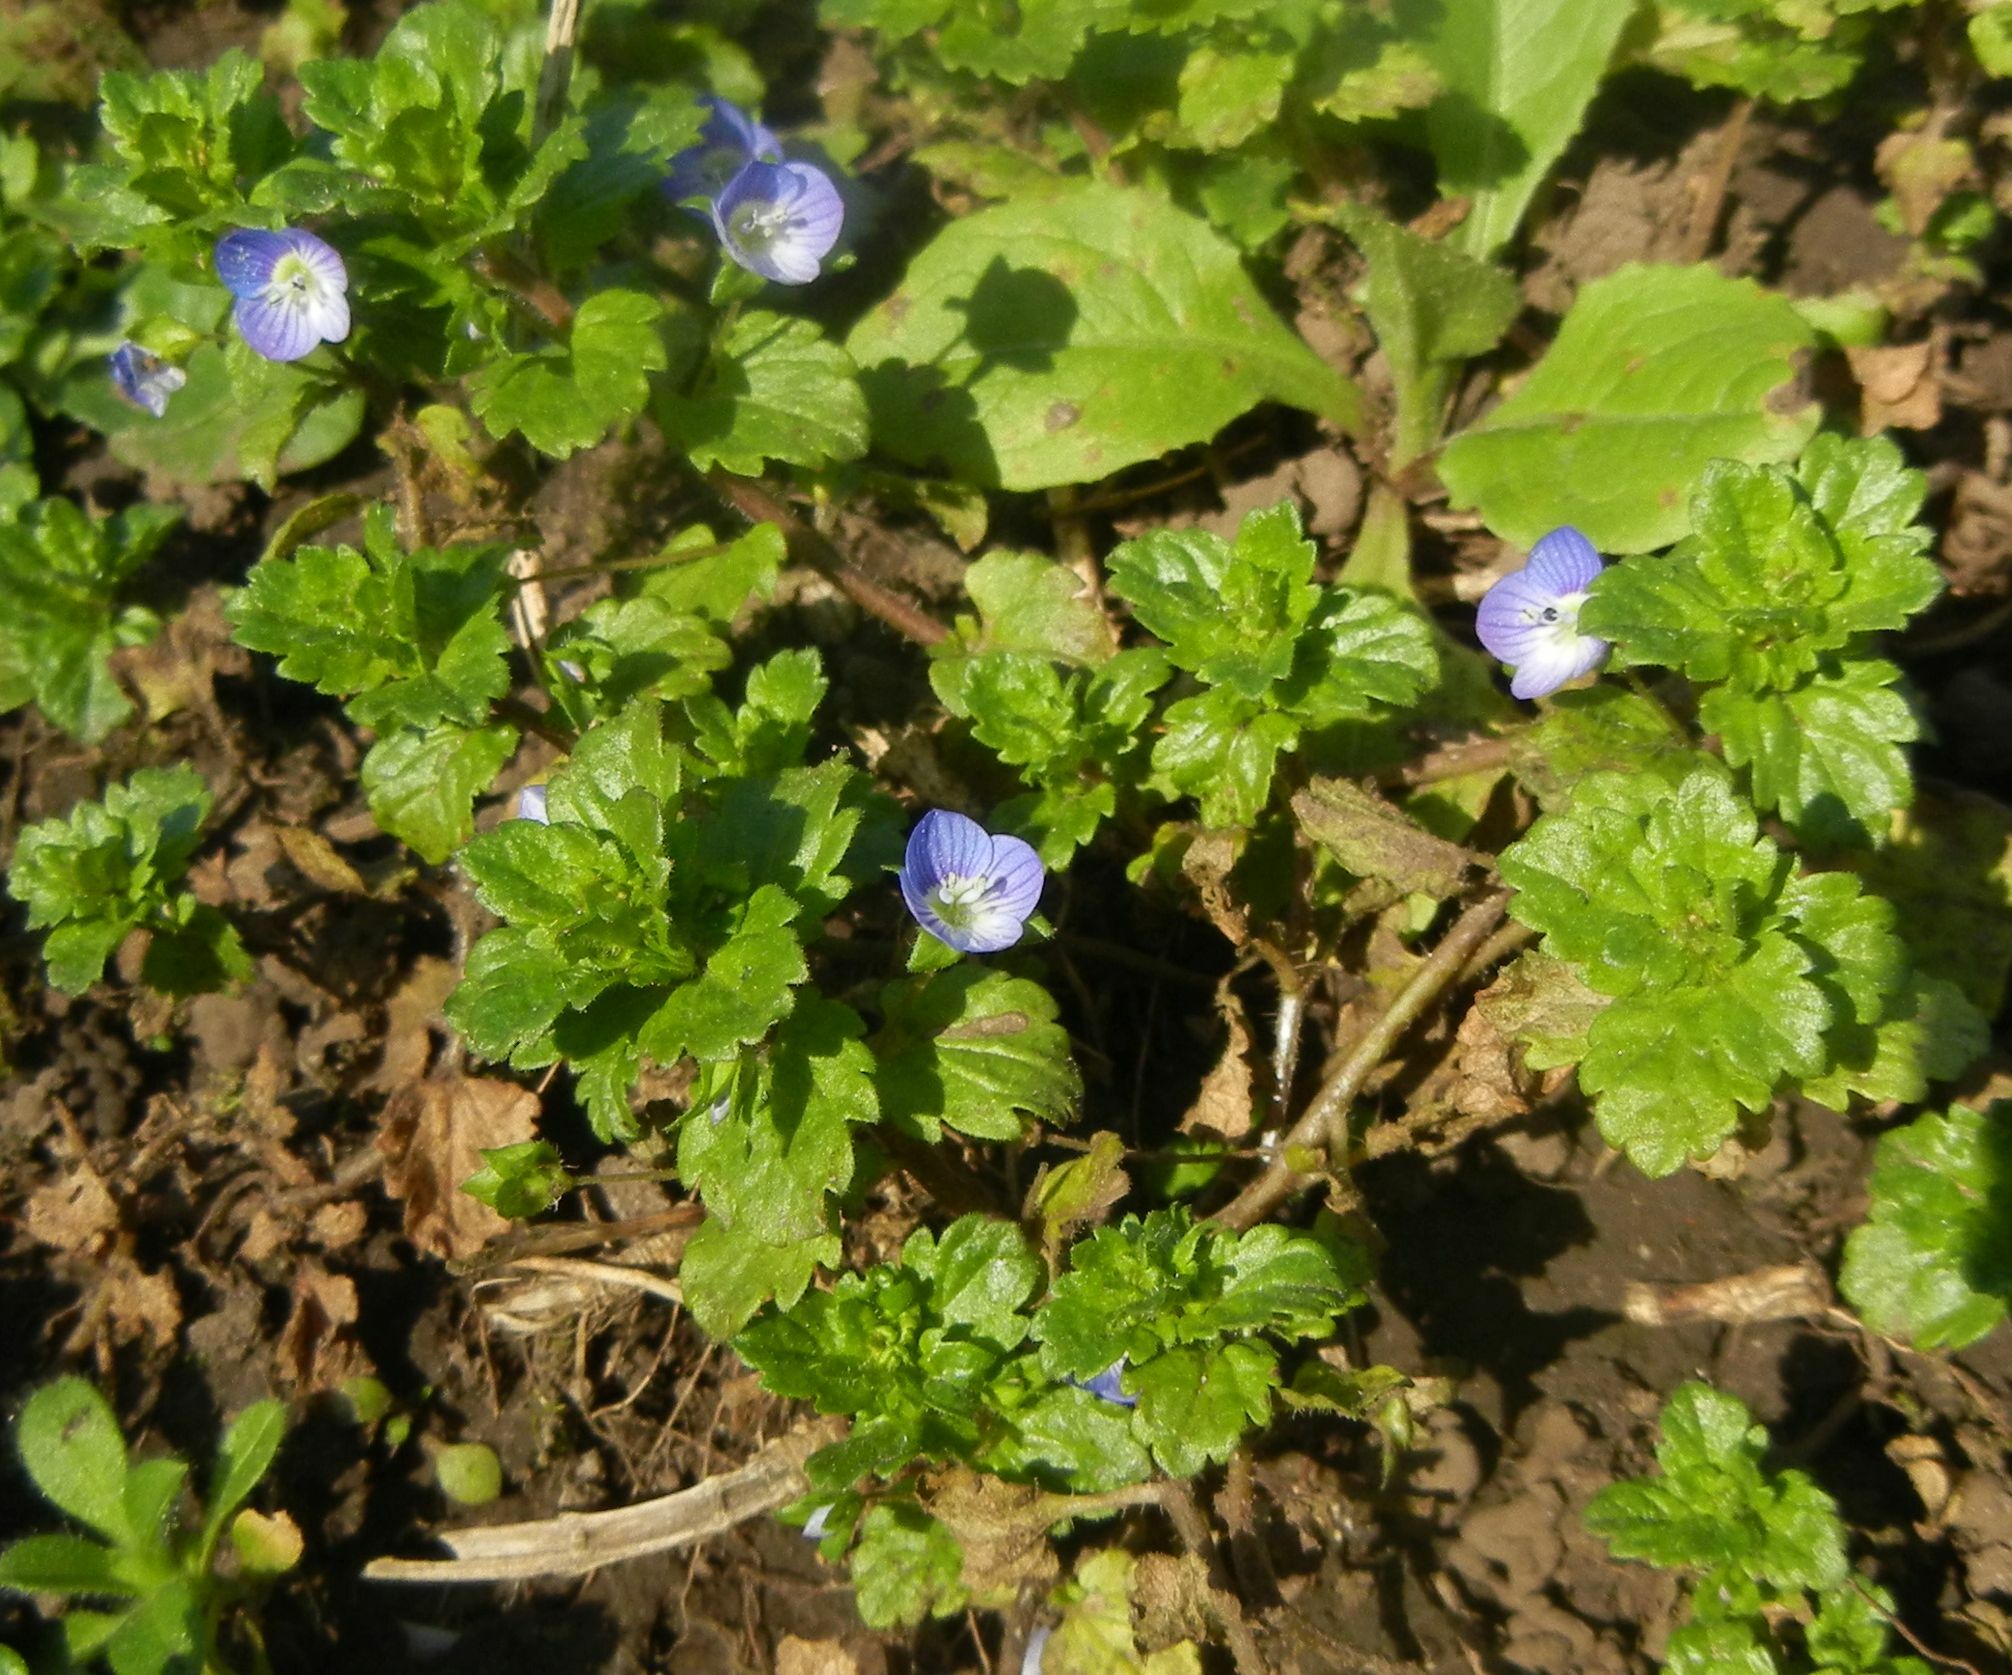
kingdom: Plantae
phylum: Tracheophyta
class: Magnoliopsida
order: Lamiales
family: Plantaginaceae
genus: Veronica
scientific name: Veronica persica
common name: Common field-speedwell
